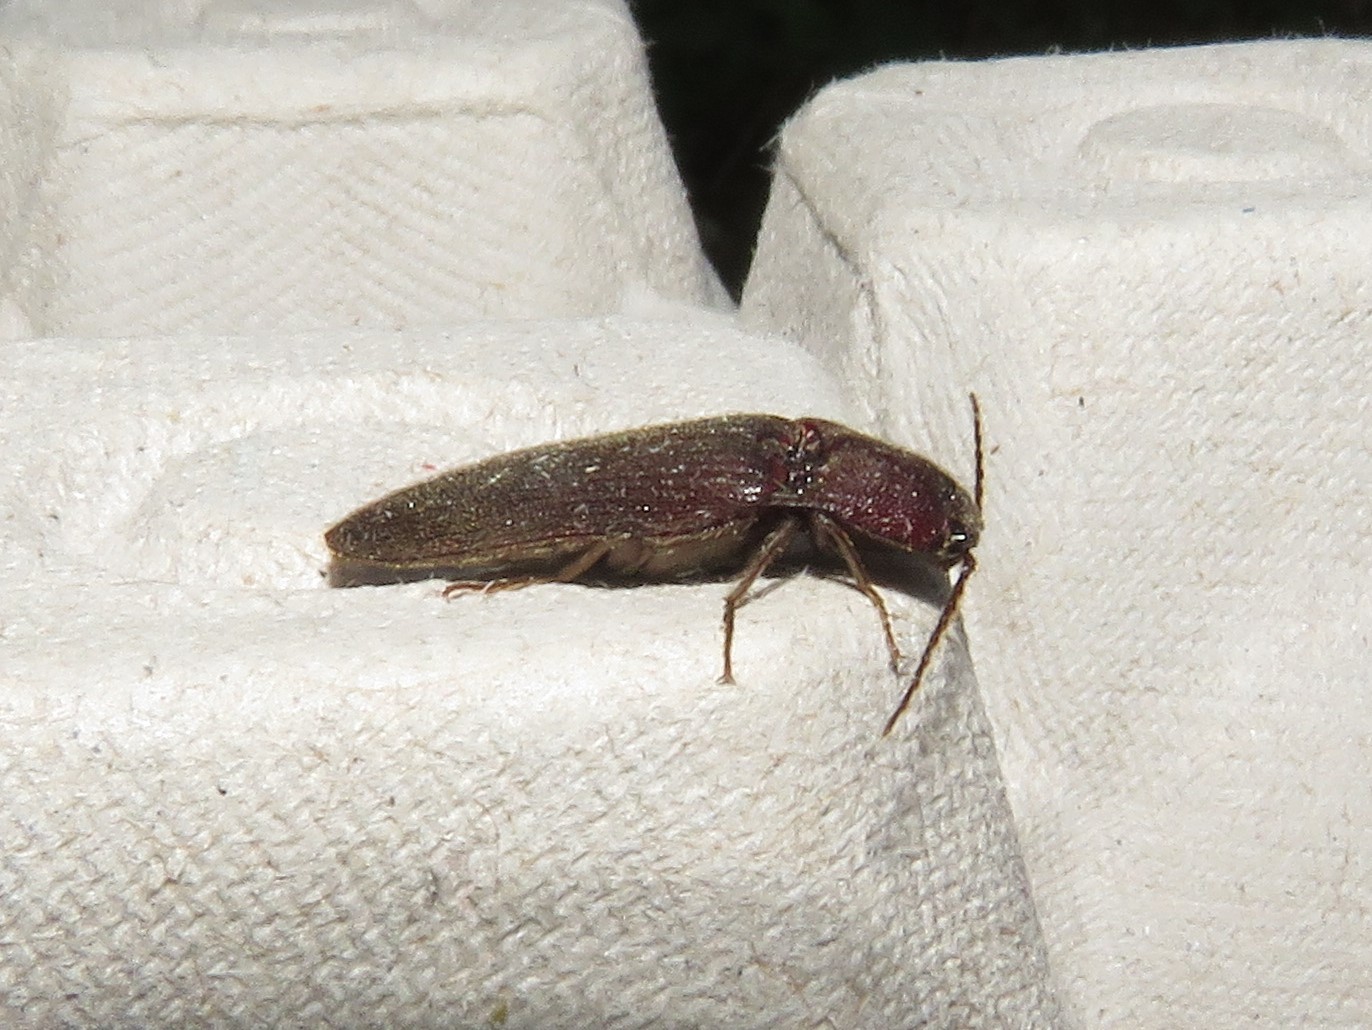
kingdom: Animalia
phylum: Arthropoda
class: Insecta
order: Coleoptera
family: Elateridae
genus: Melanotus
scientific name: Melanotus castanipes
